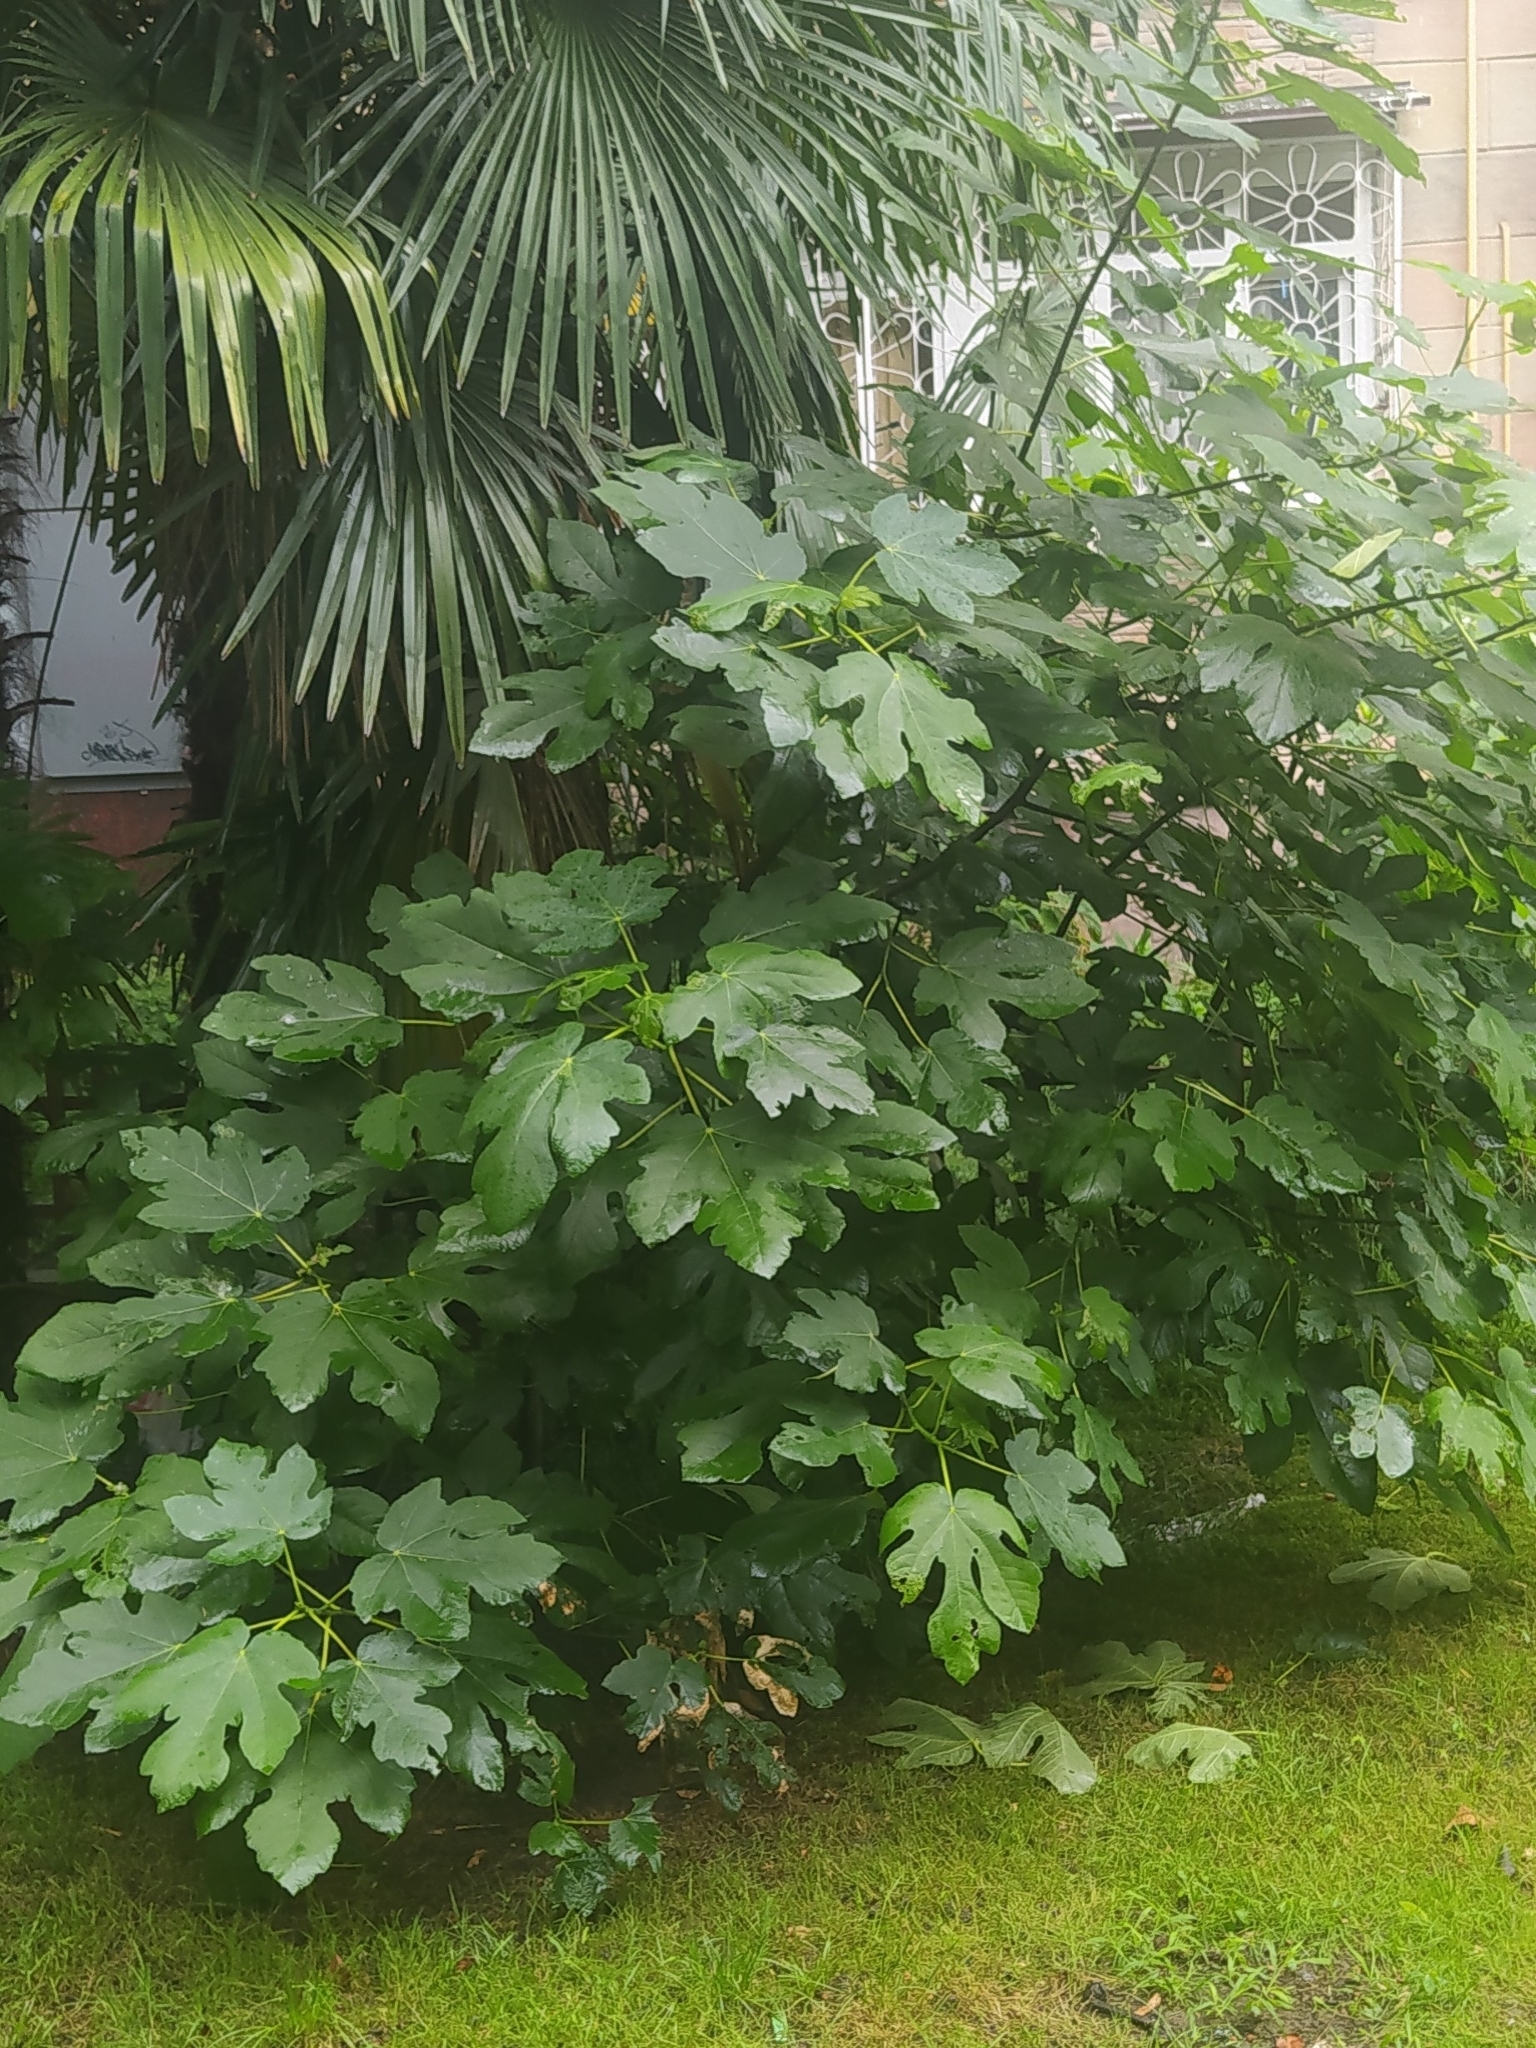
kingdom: Plantae
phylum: Tracheophyta
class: Magnoliopsida
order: Rosales
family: Moraceae
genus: Ficus
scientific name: Ficus carica
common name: Fig
